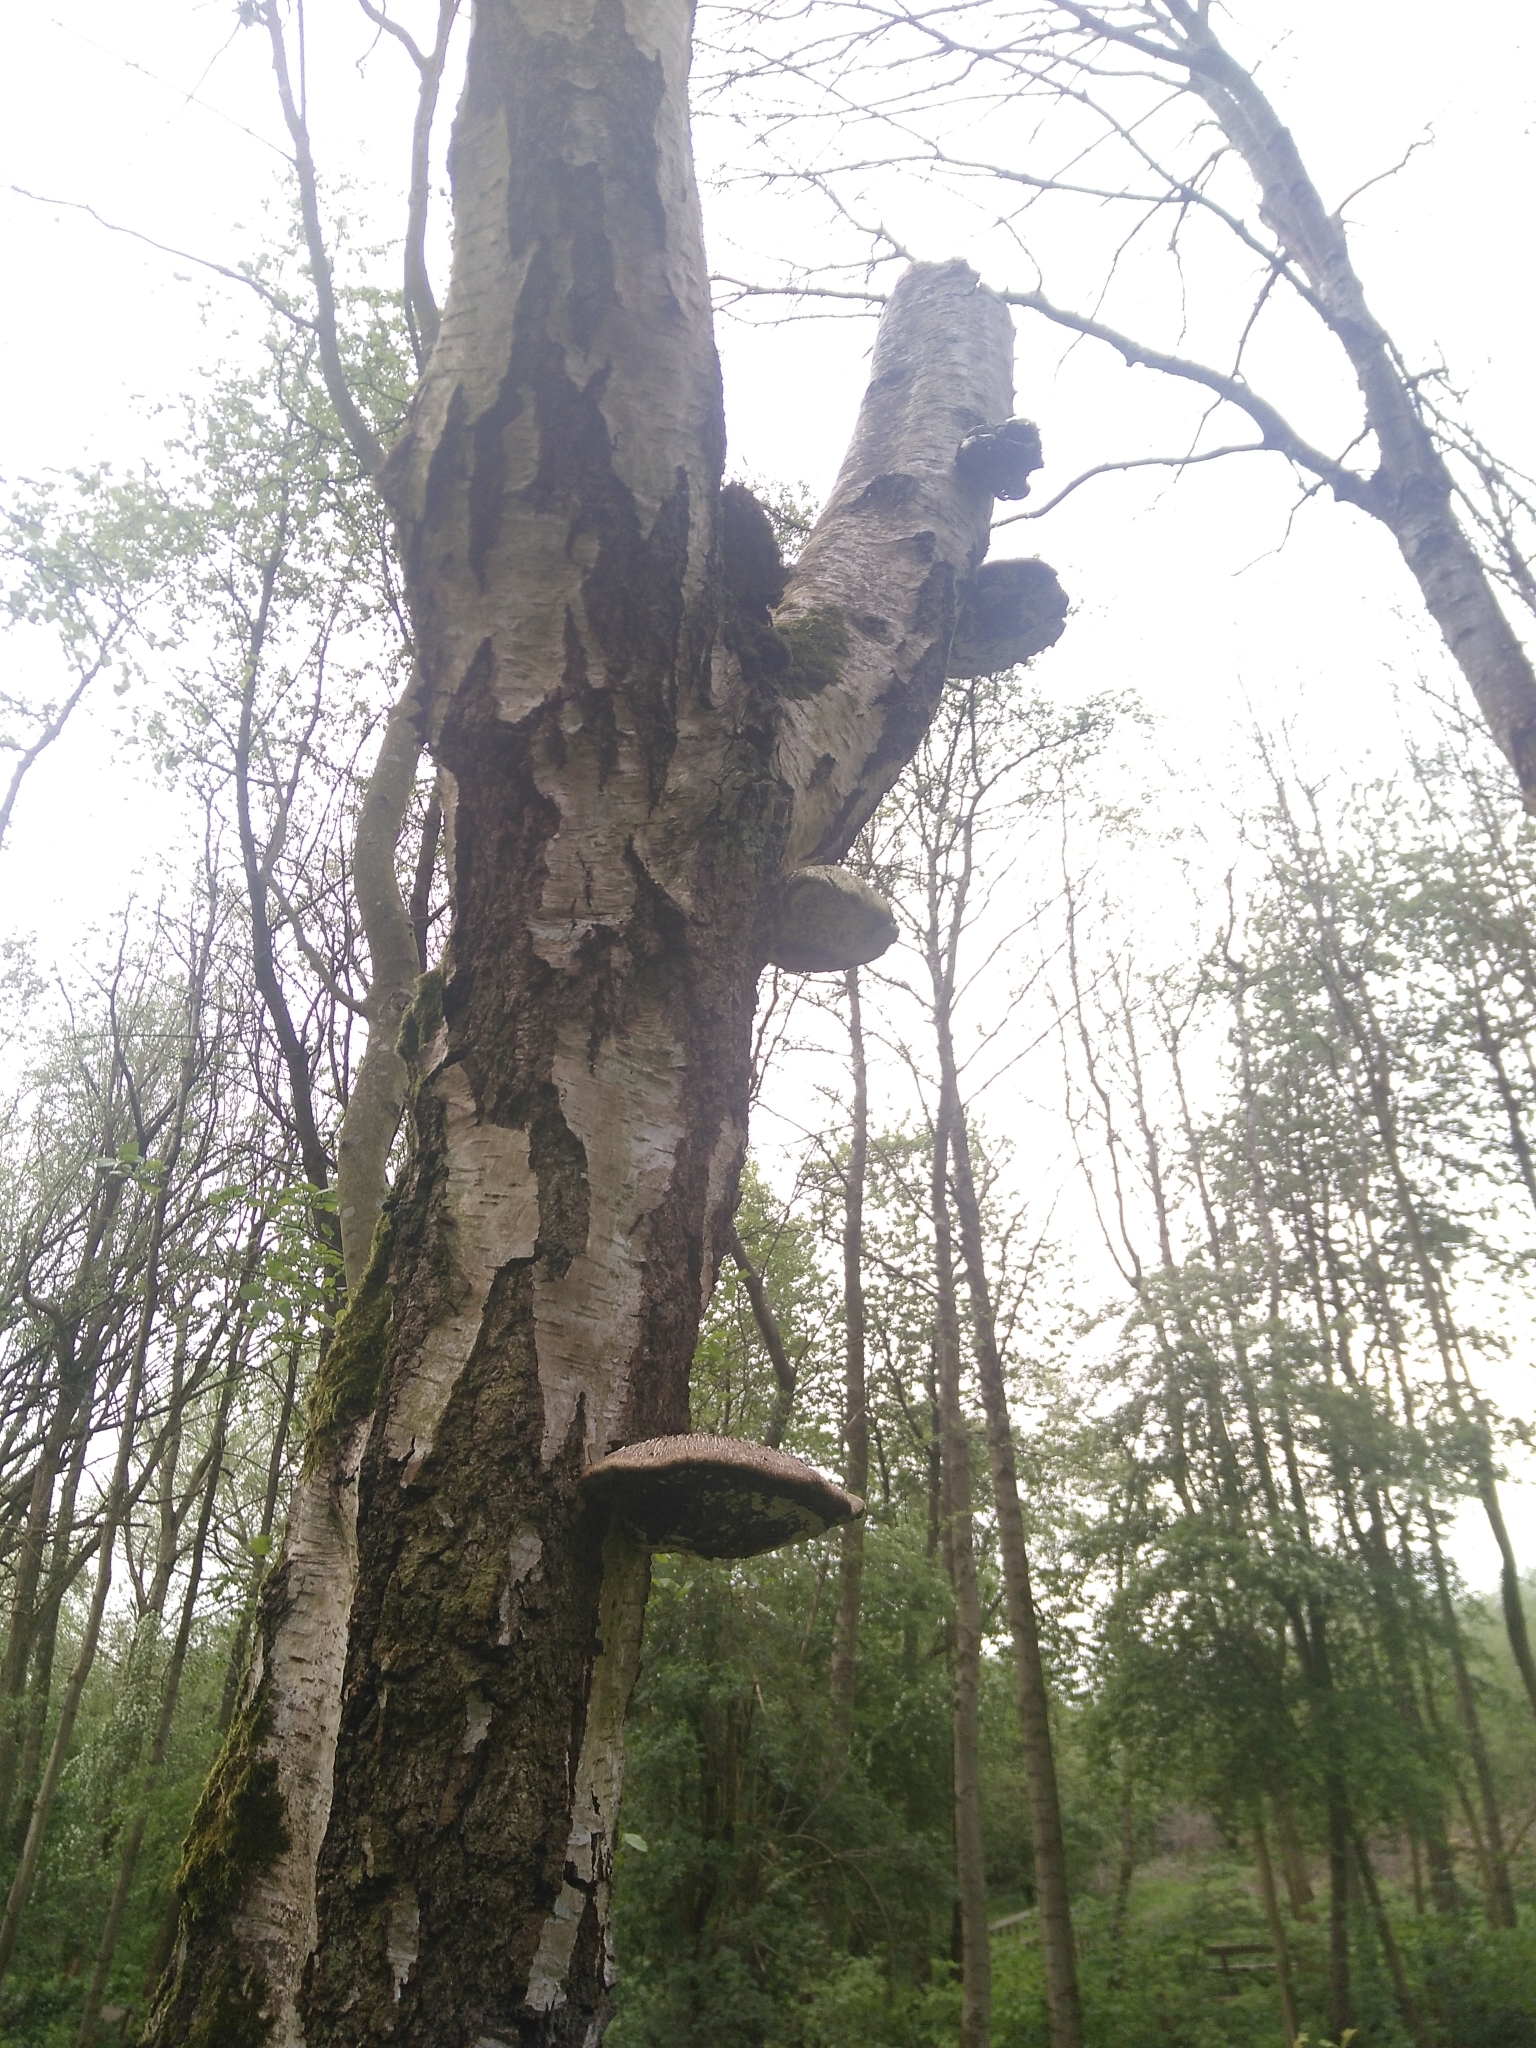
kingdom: Fungi
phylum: Basidiomycota
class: Agaricomycetes
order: Polyporales
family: Fomitopsidaceae
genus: Fomitopsis
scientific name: Fomitopsis betulina
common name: Birch polypore
